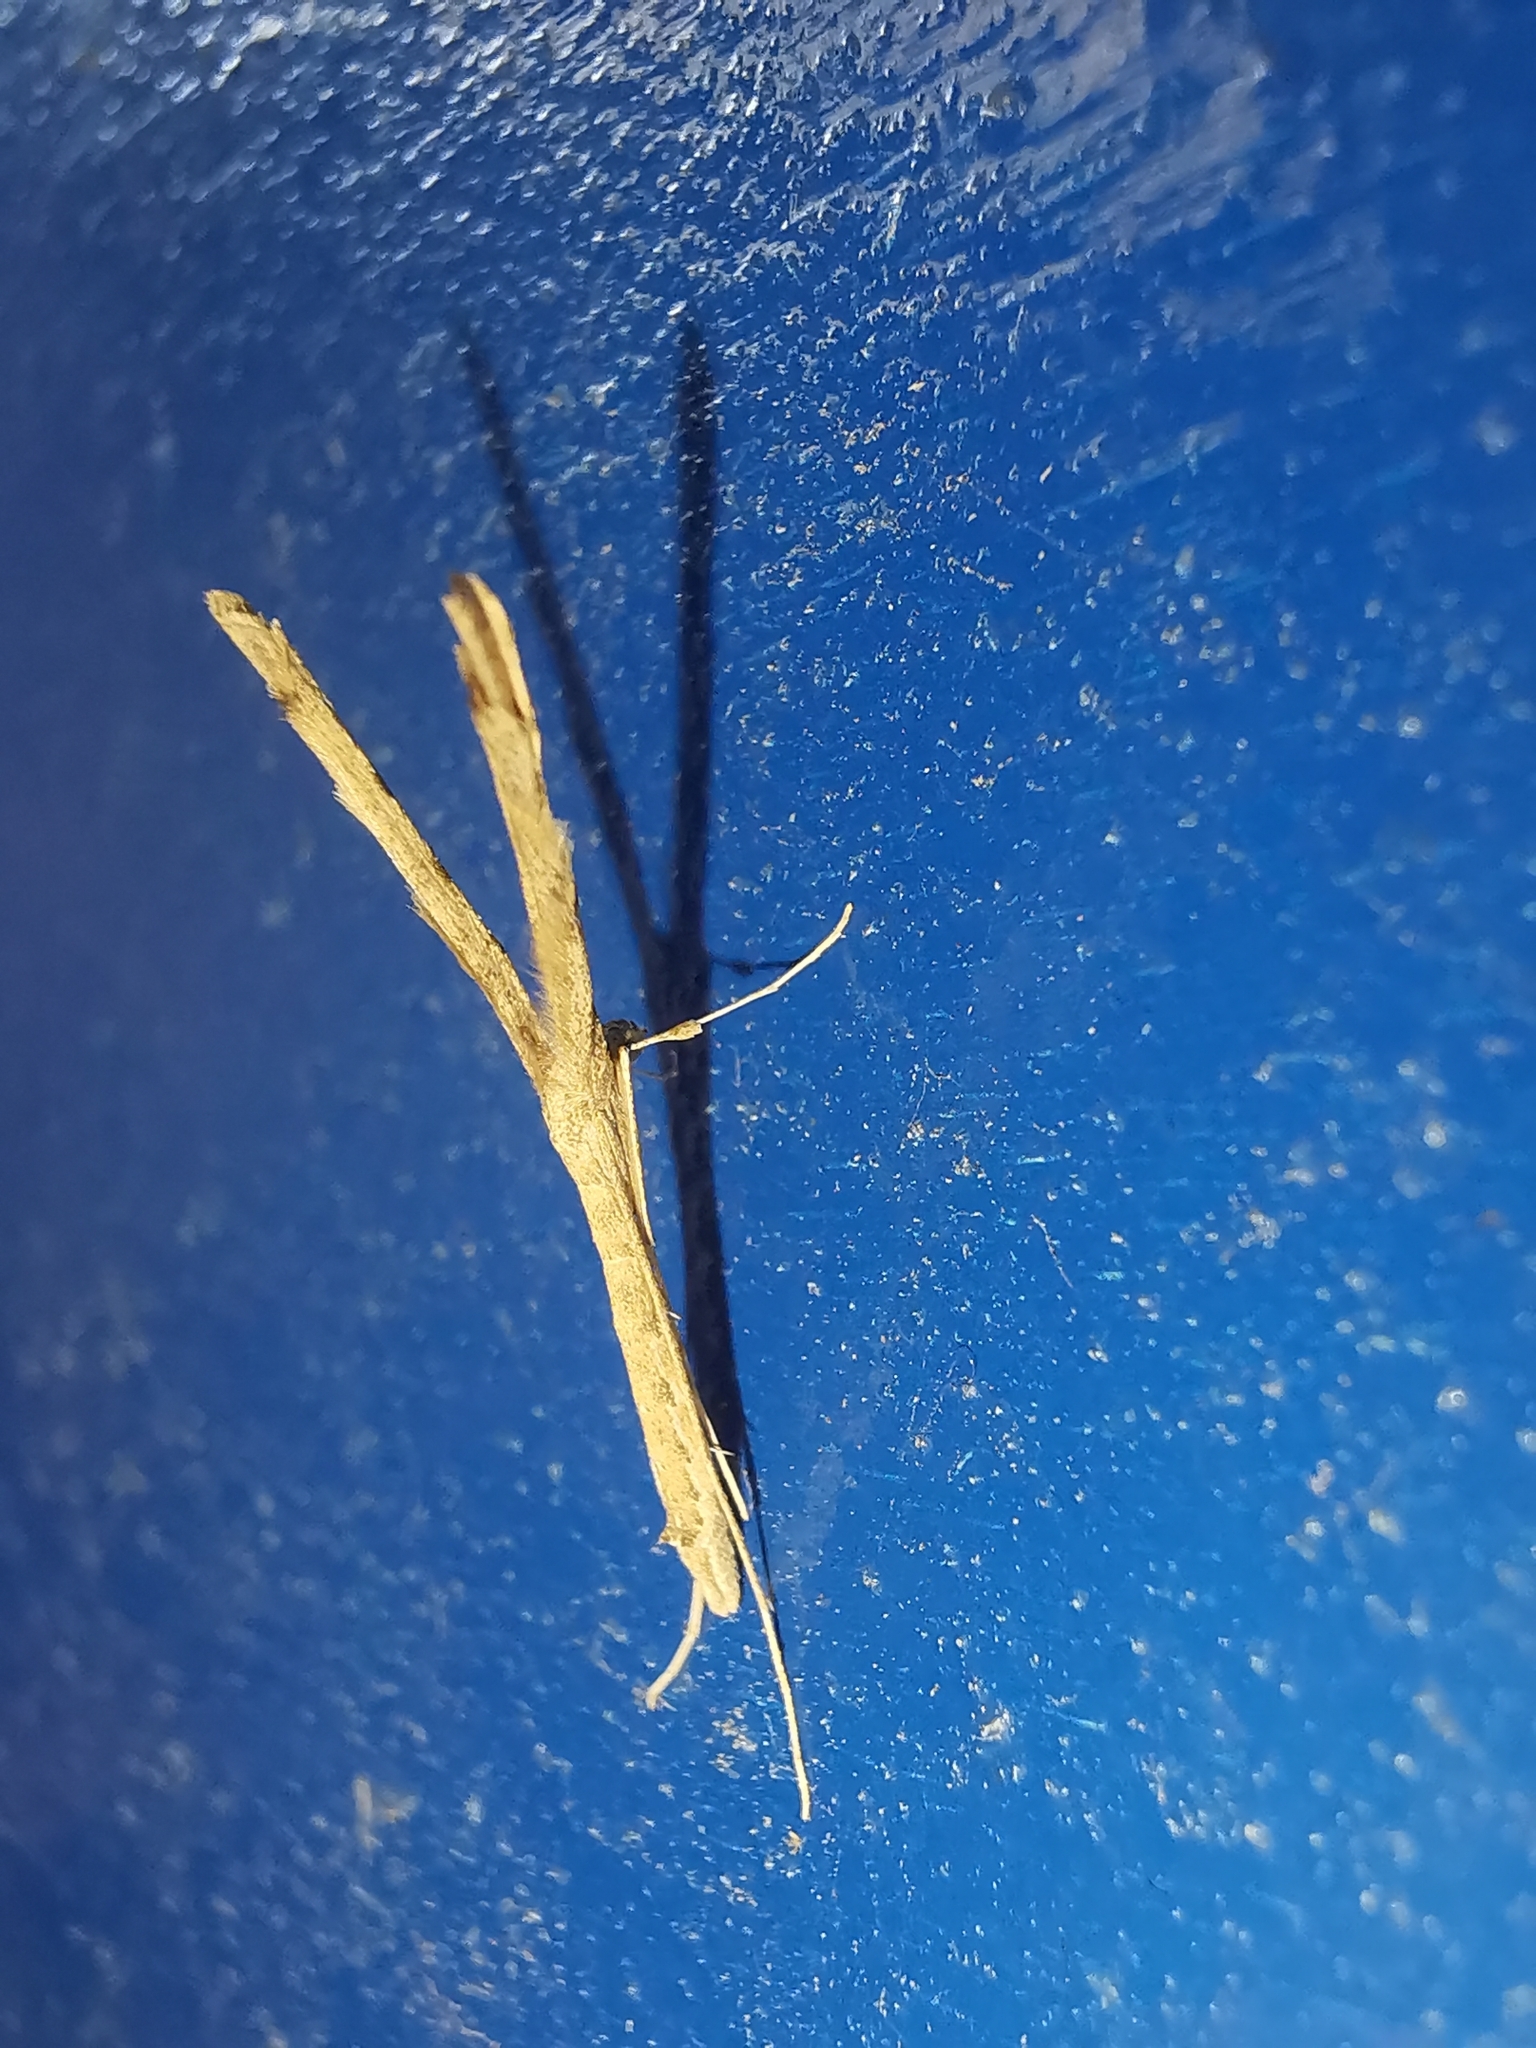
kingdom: Animalia
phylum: Arthropoda
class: Insecta
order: Lepidoptera
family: Pterophoridae
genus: Agdistis
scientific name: Agdistis tamaricis
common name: Tamarisk plume
